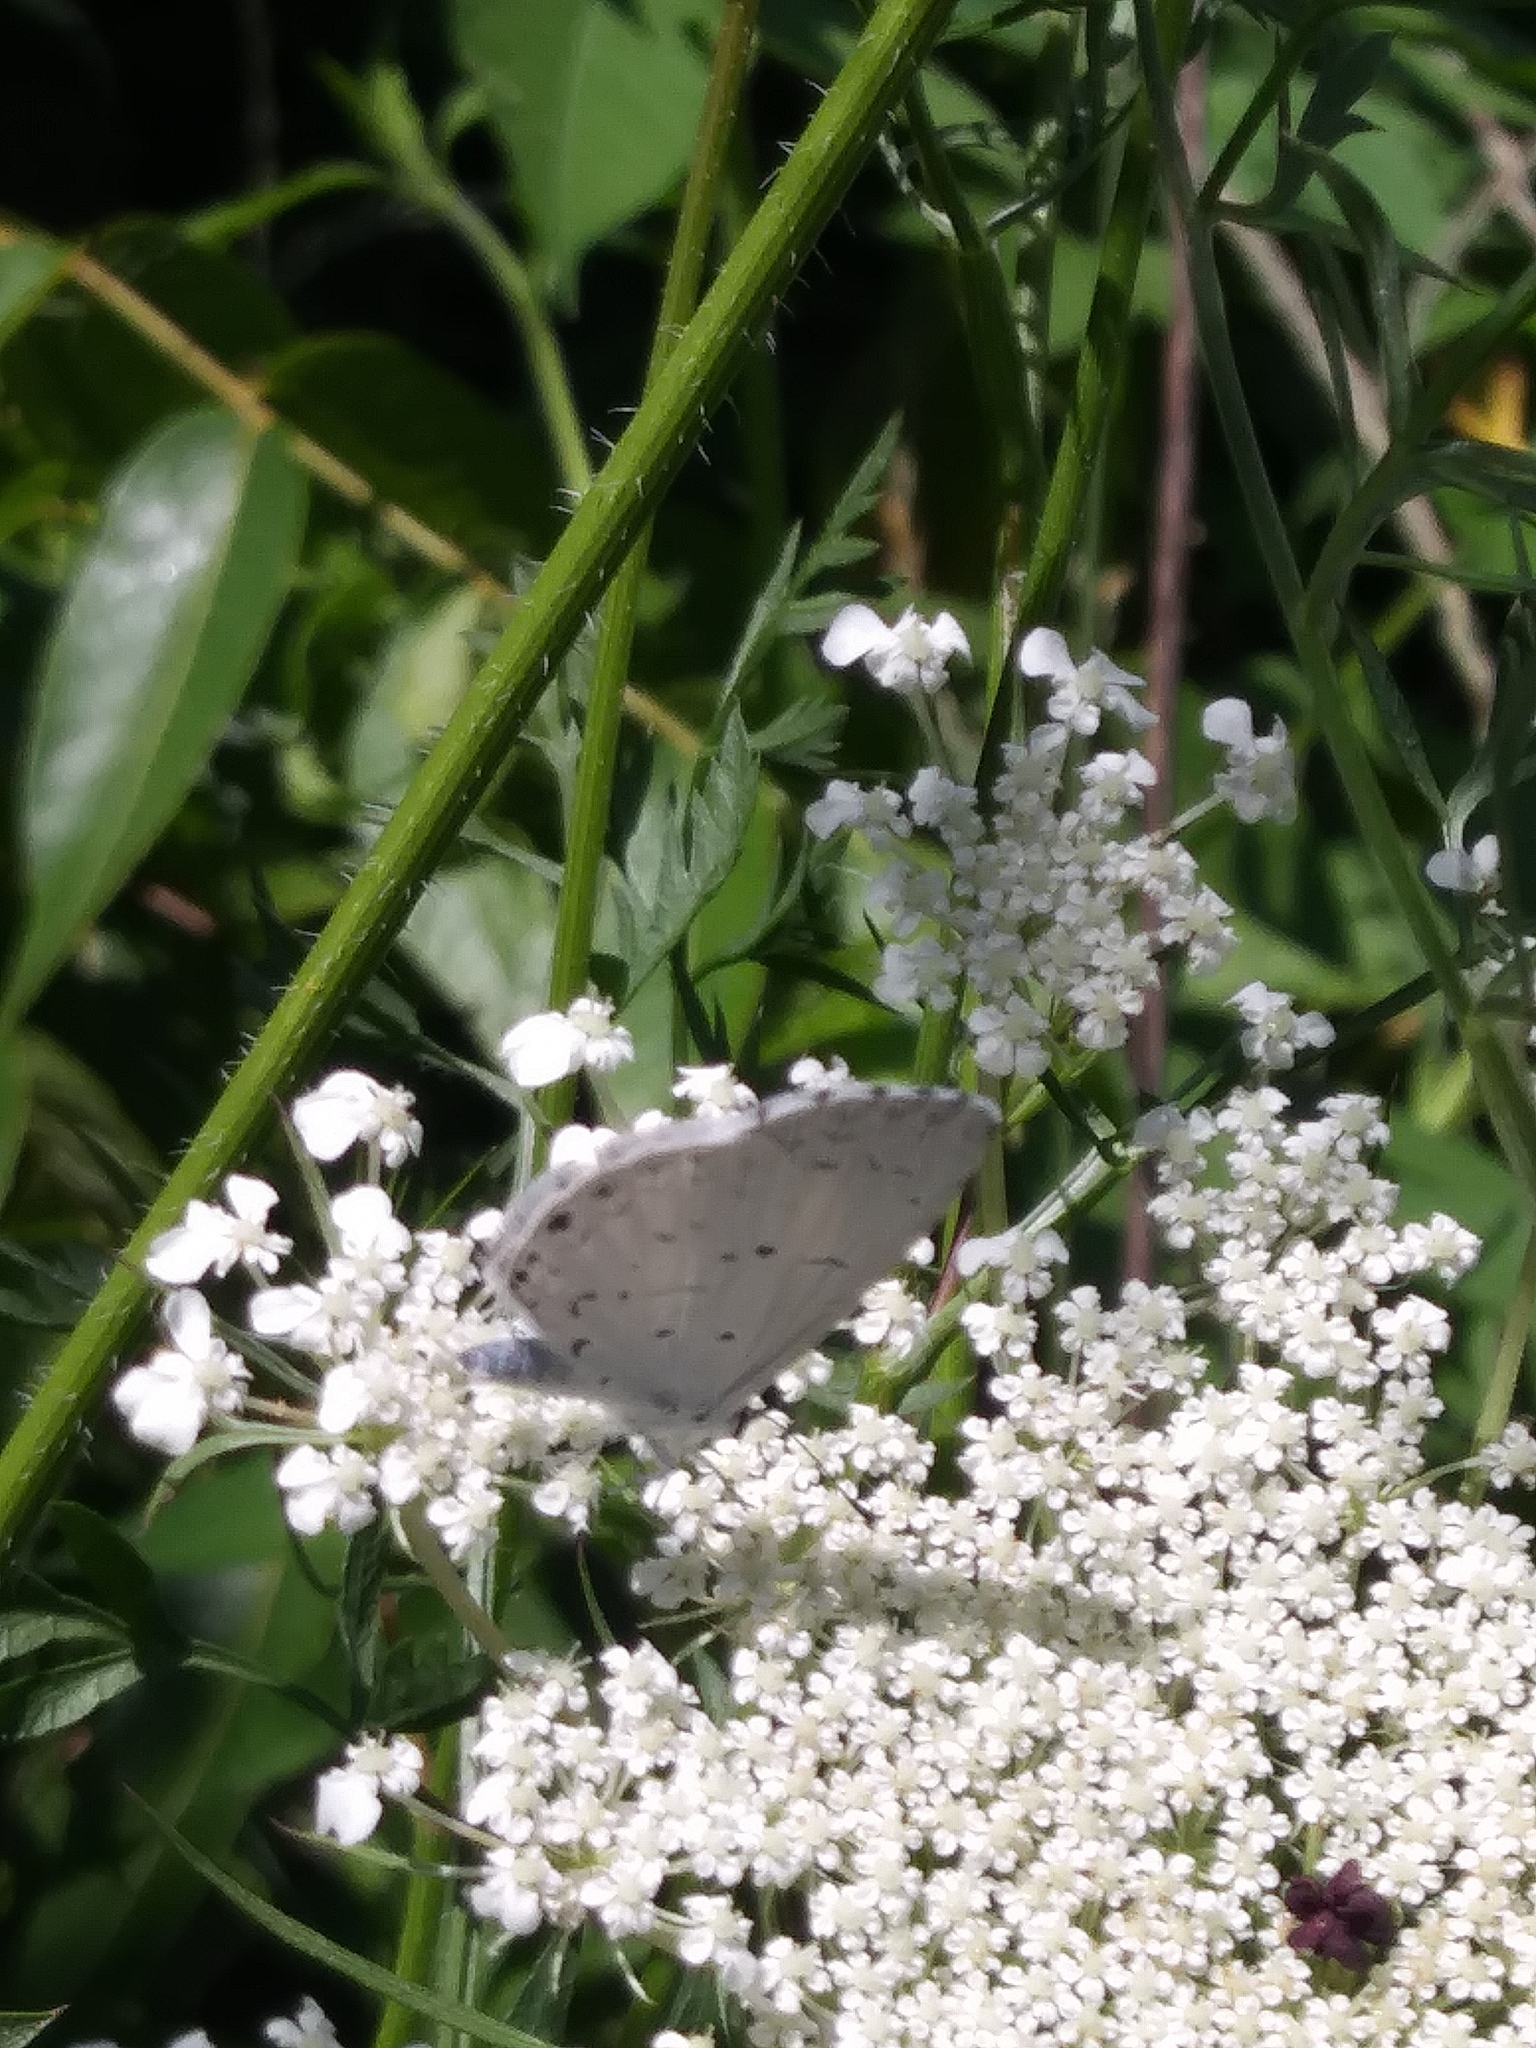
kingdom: Animalia
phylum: Arthropoda
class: Insecta
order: Lepidoptera
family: Lycaenidae
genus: Cyaniris
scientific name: Cyaniris neglecta
